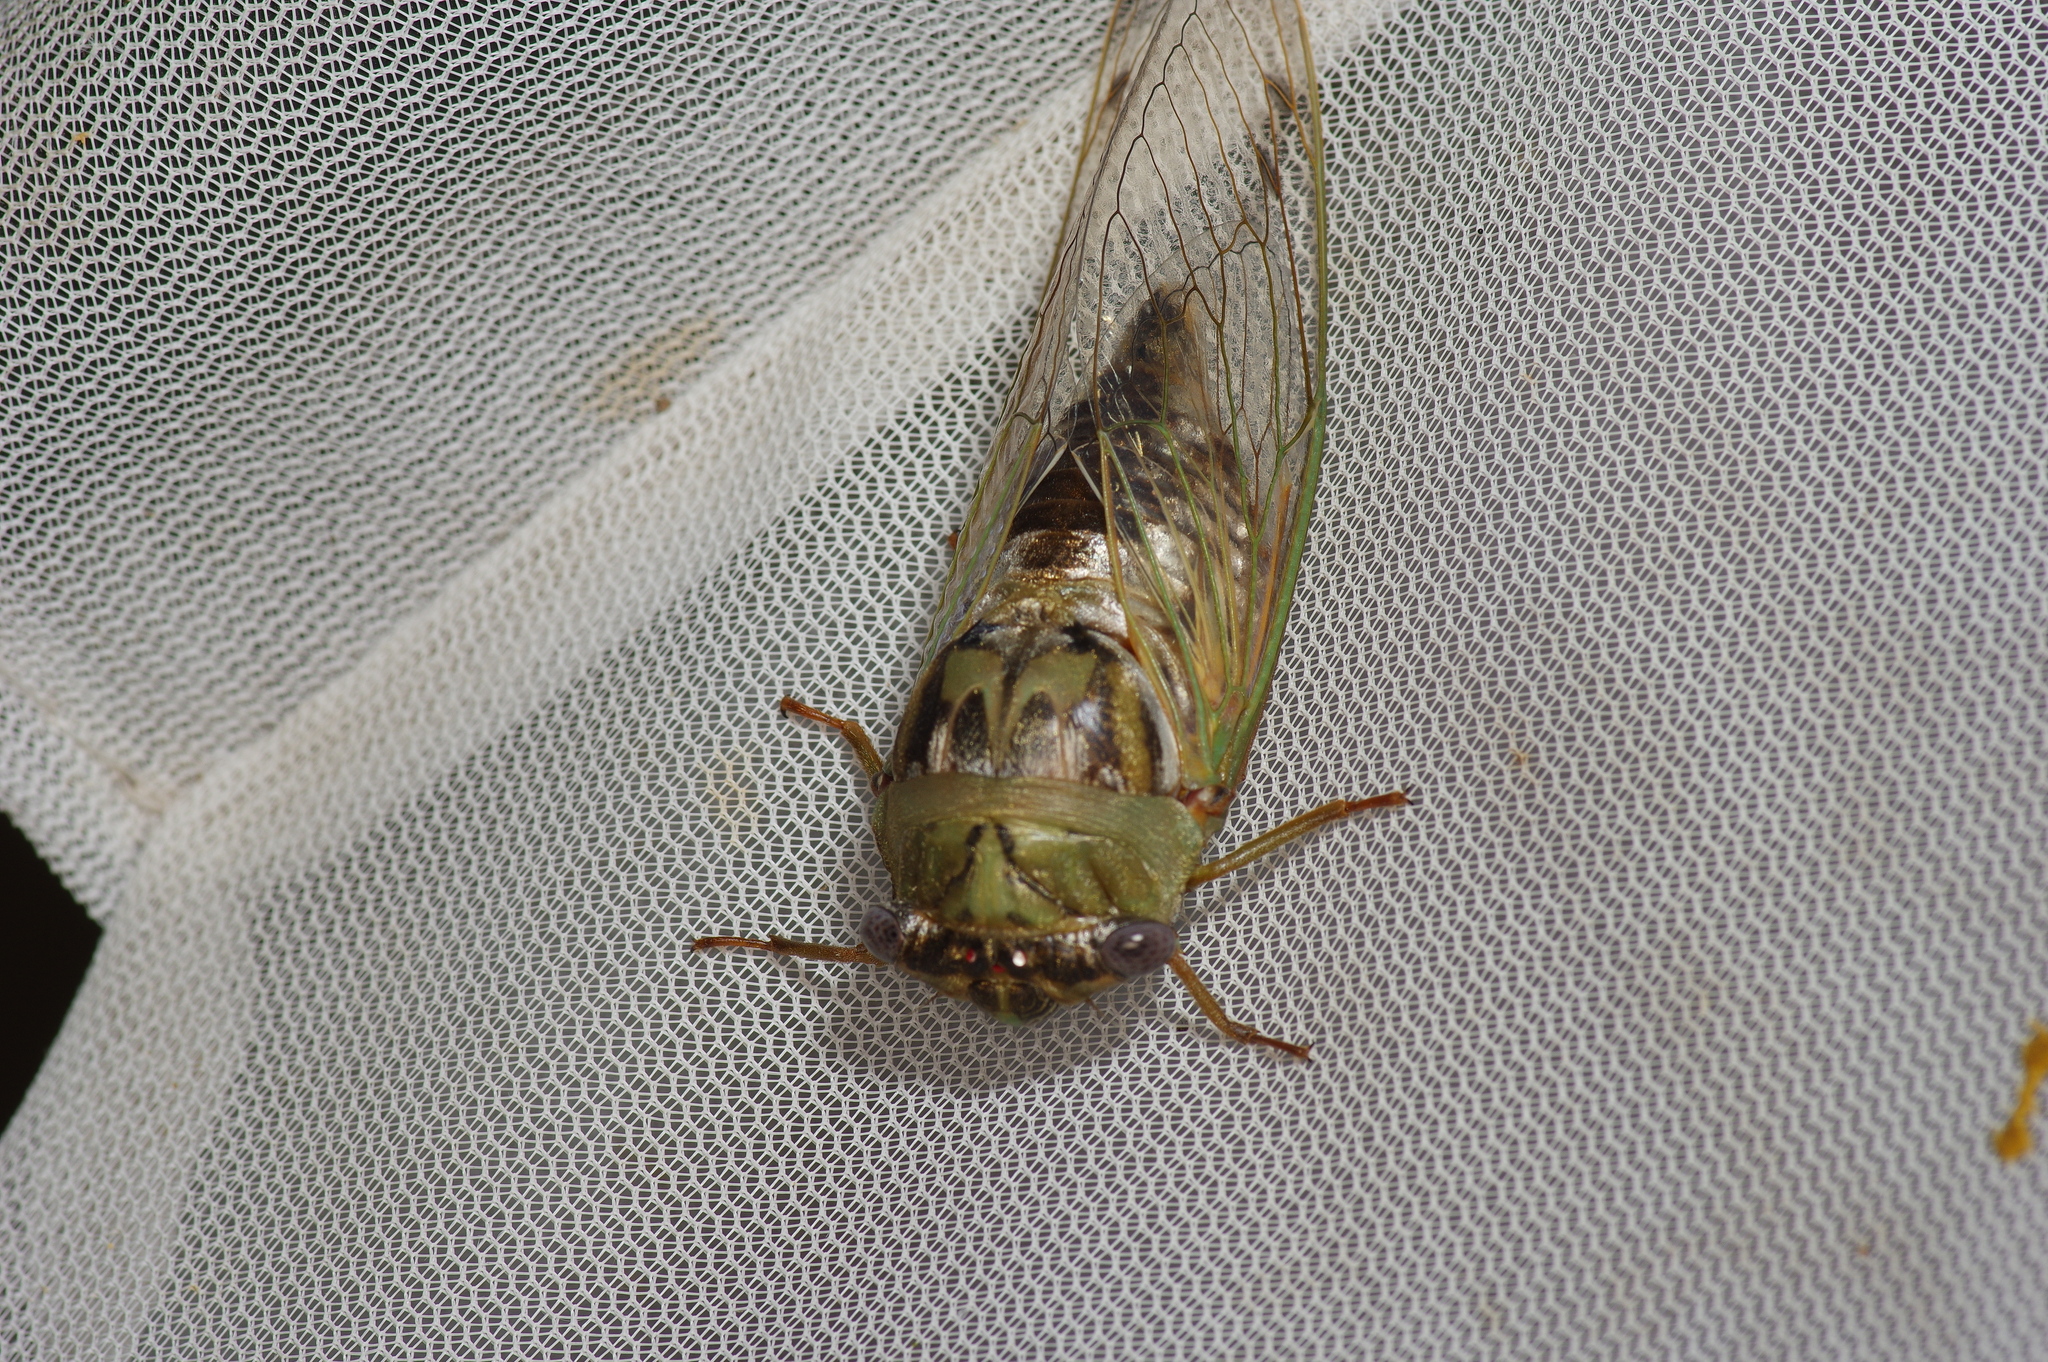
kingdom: Animalia
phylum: Arthropoda
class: Insecta
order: Hemiptera
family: Cicadidae
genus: Megatibicen
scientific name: Megatibicen resh
